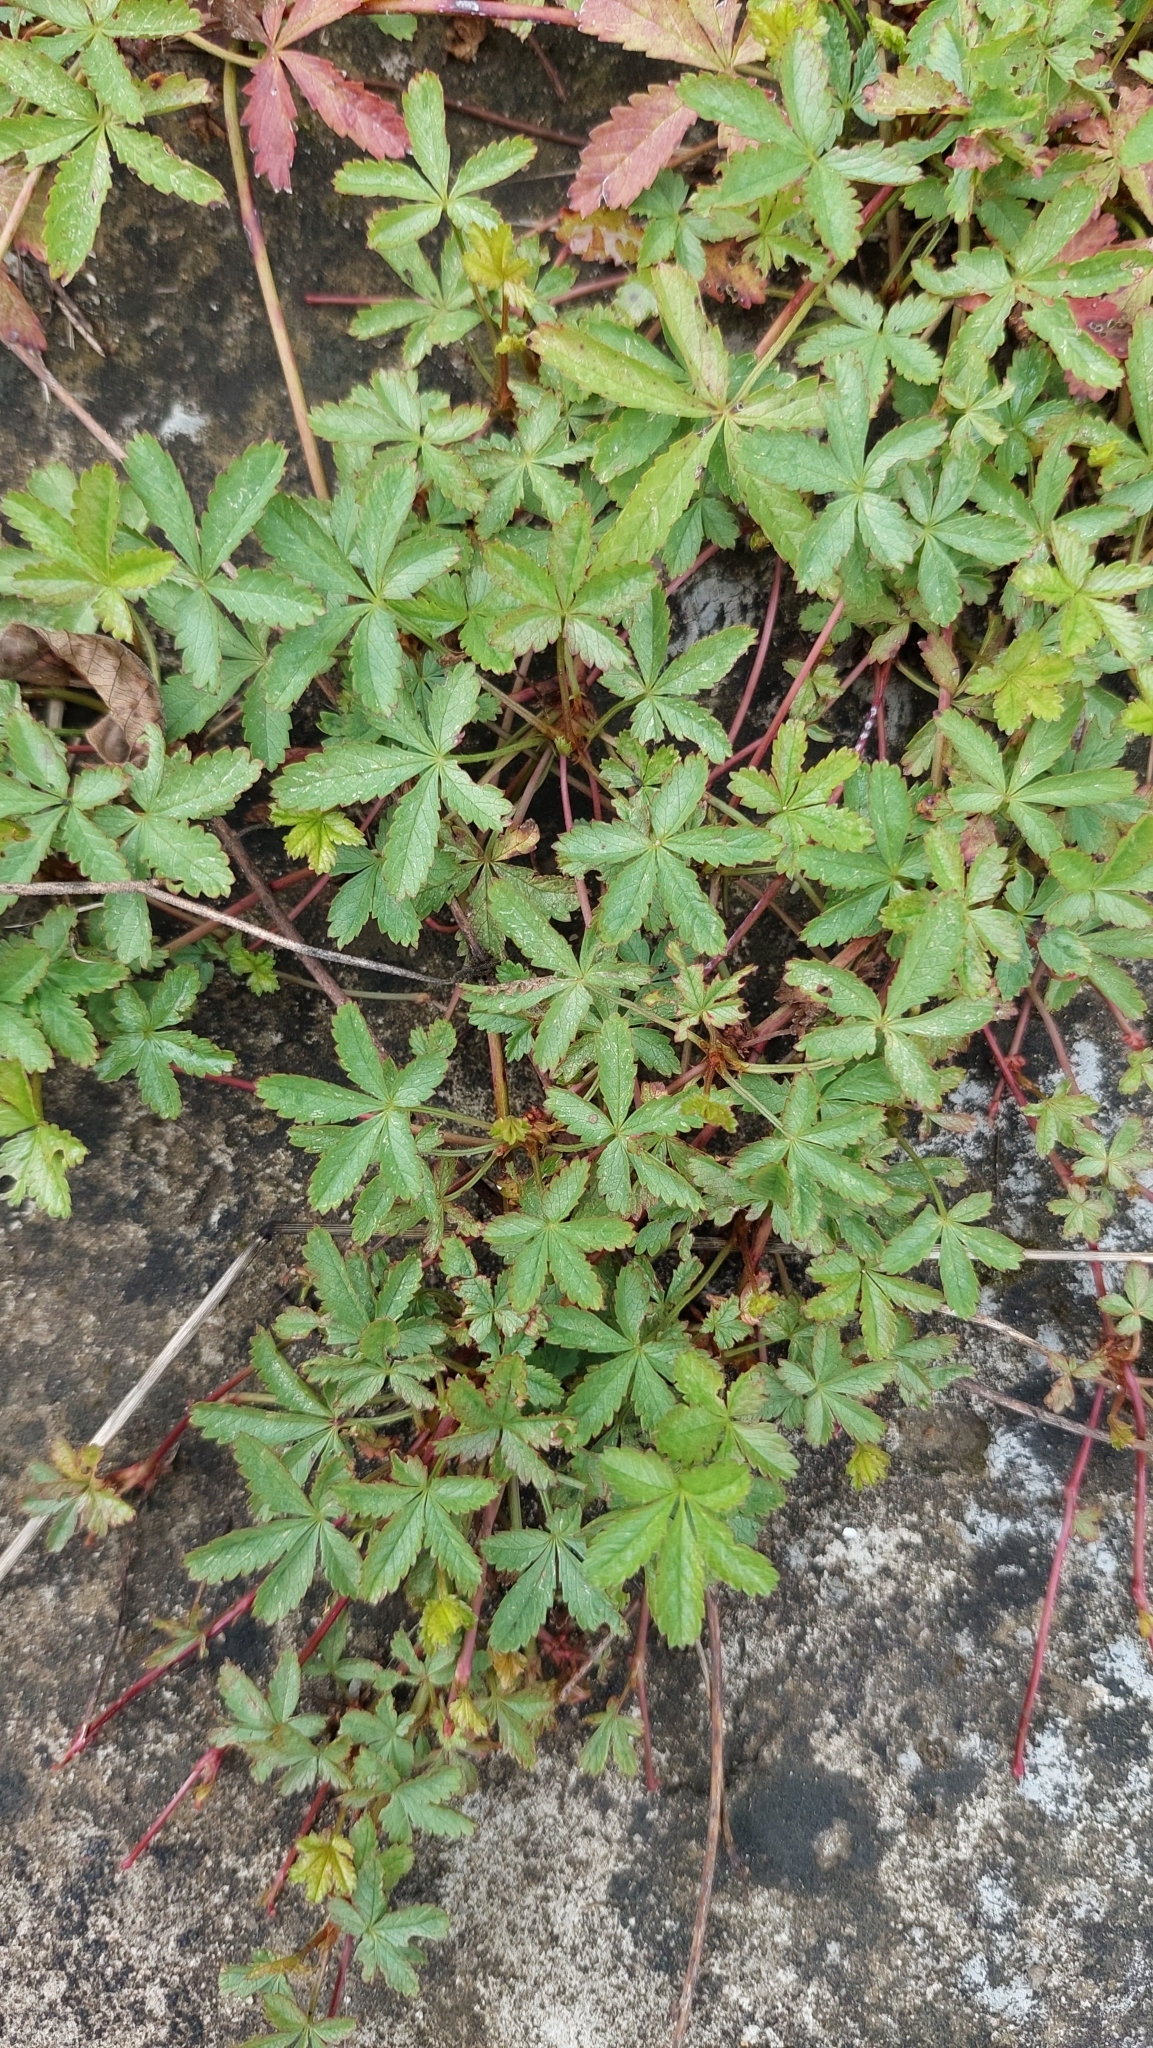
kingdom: Plantae
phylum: Tracheophyta
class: Magnoliopsida
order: Rosales
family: Rosaceae
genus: Potentilla
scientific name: Potentilla reptans
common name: Creeping cinquefoil
